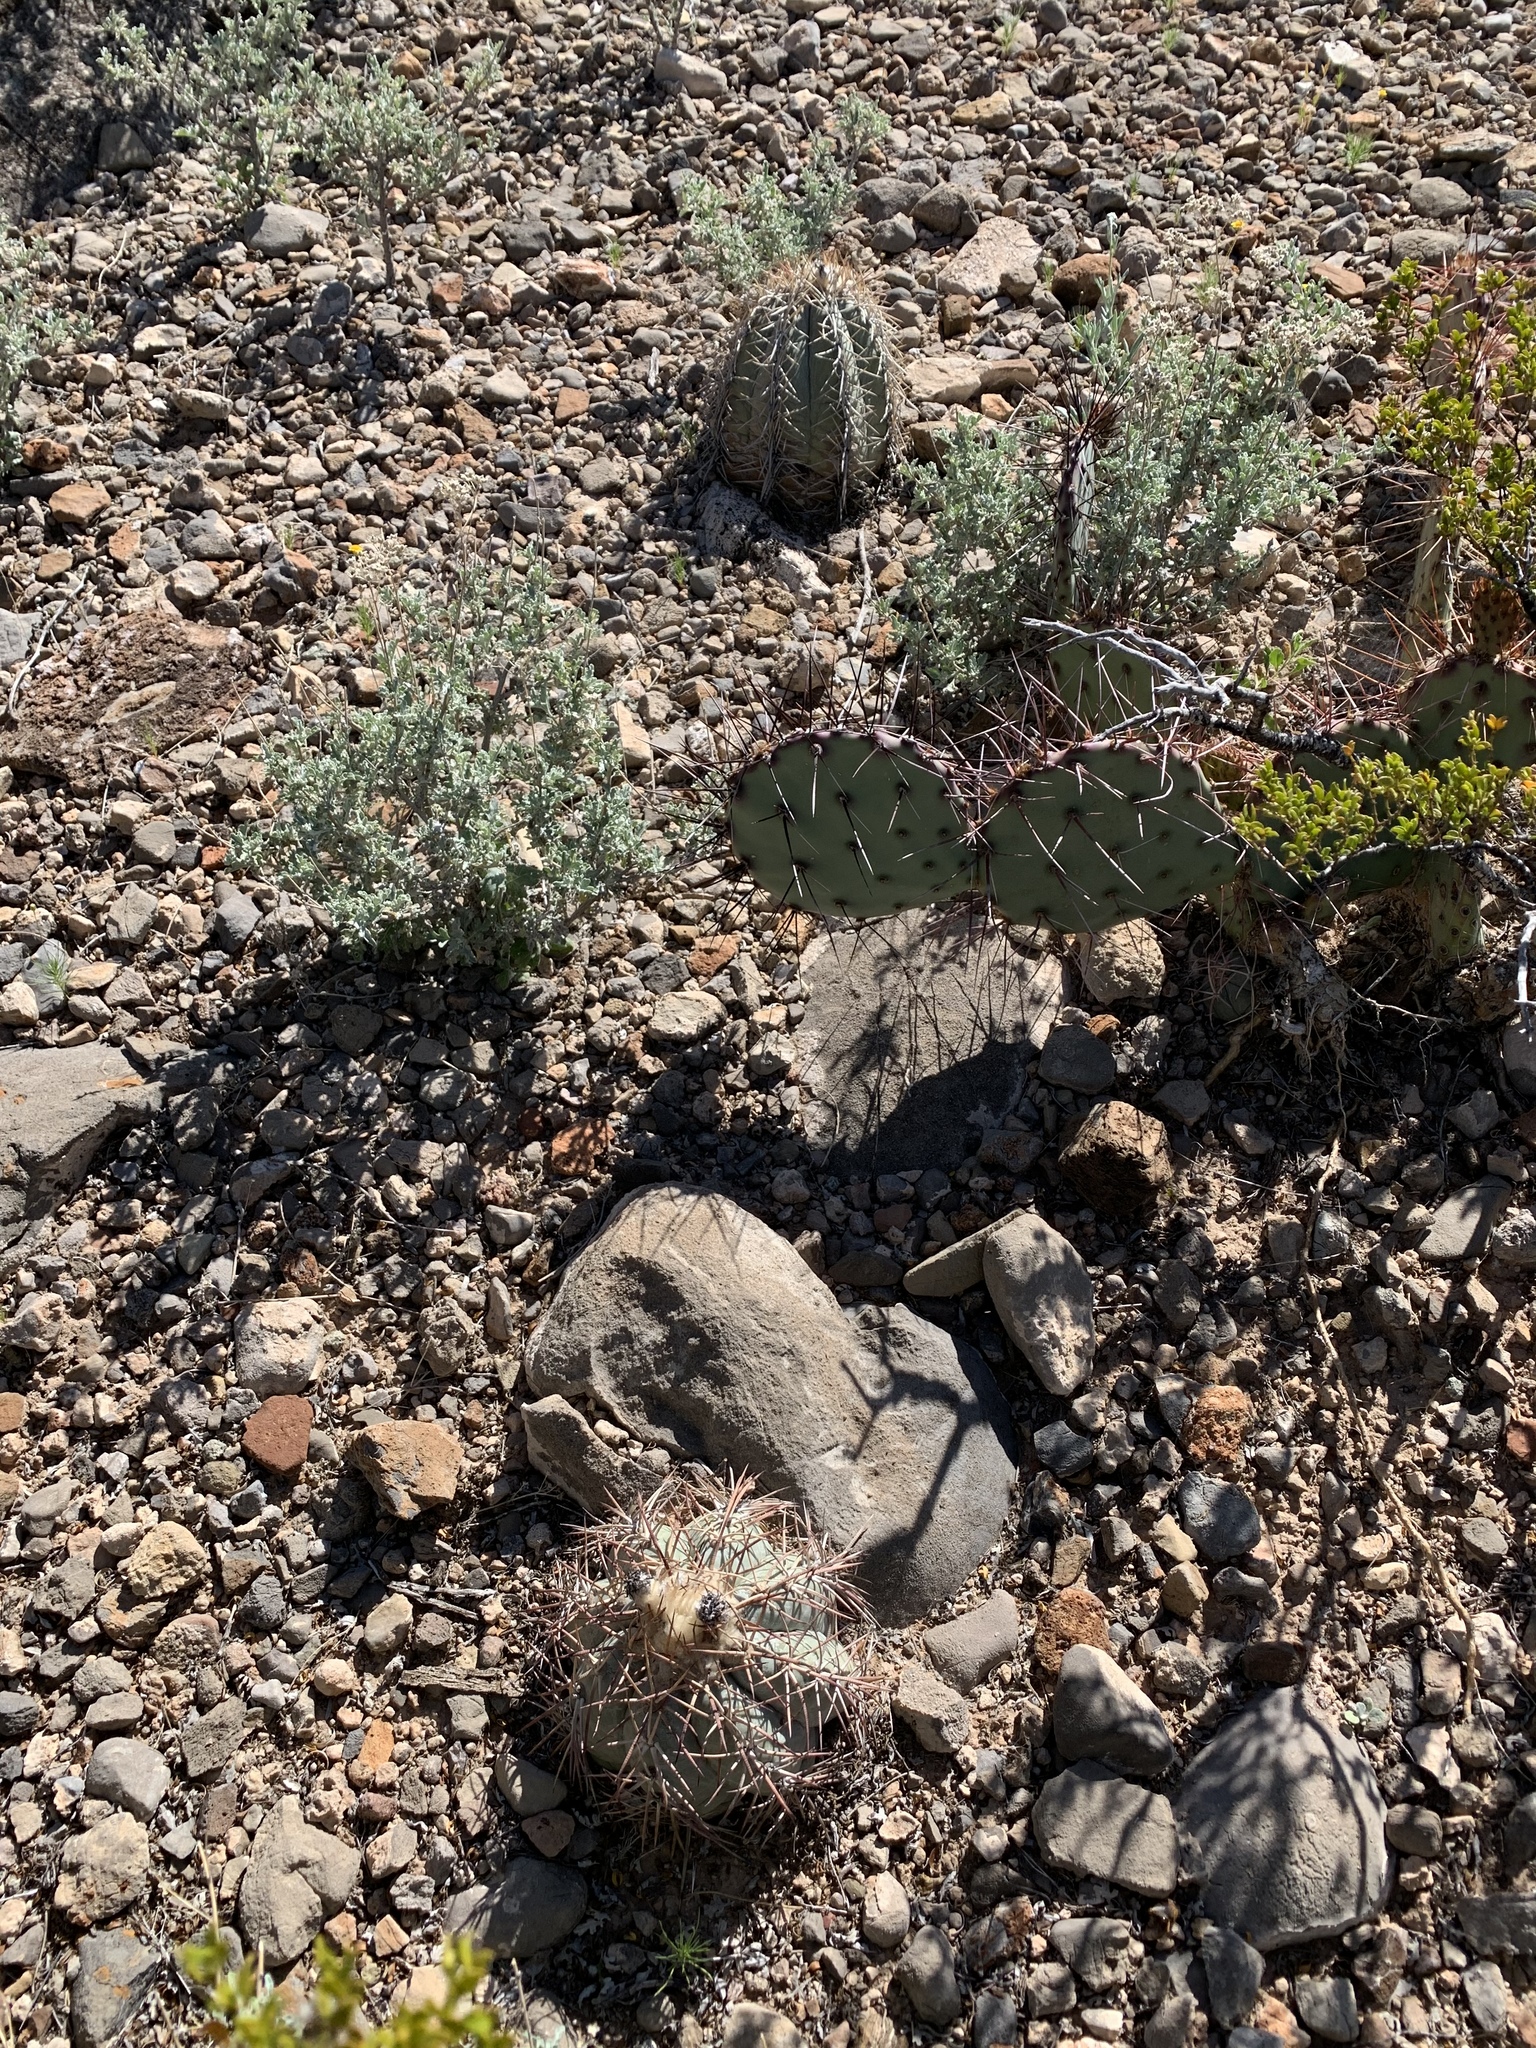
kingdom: Plantae
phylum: Tracheophyta
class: Magnoliopsida
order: Caryophyllales
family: Cactaceae
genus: Echinocactus
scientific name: Echinocactus horizonthalonius
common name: Devilshead
